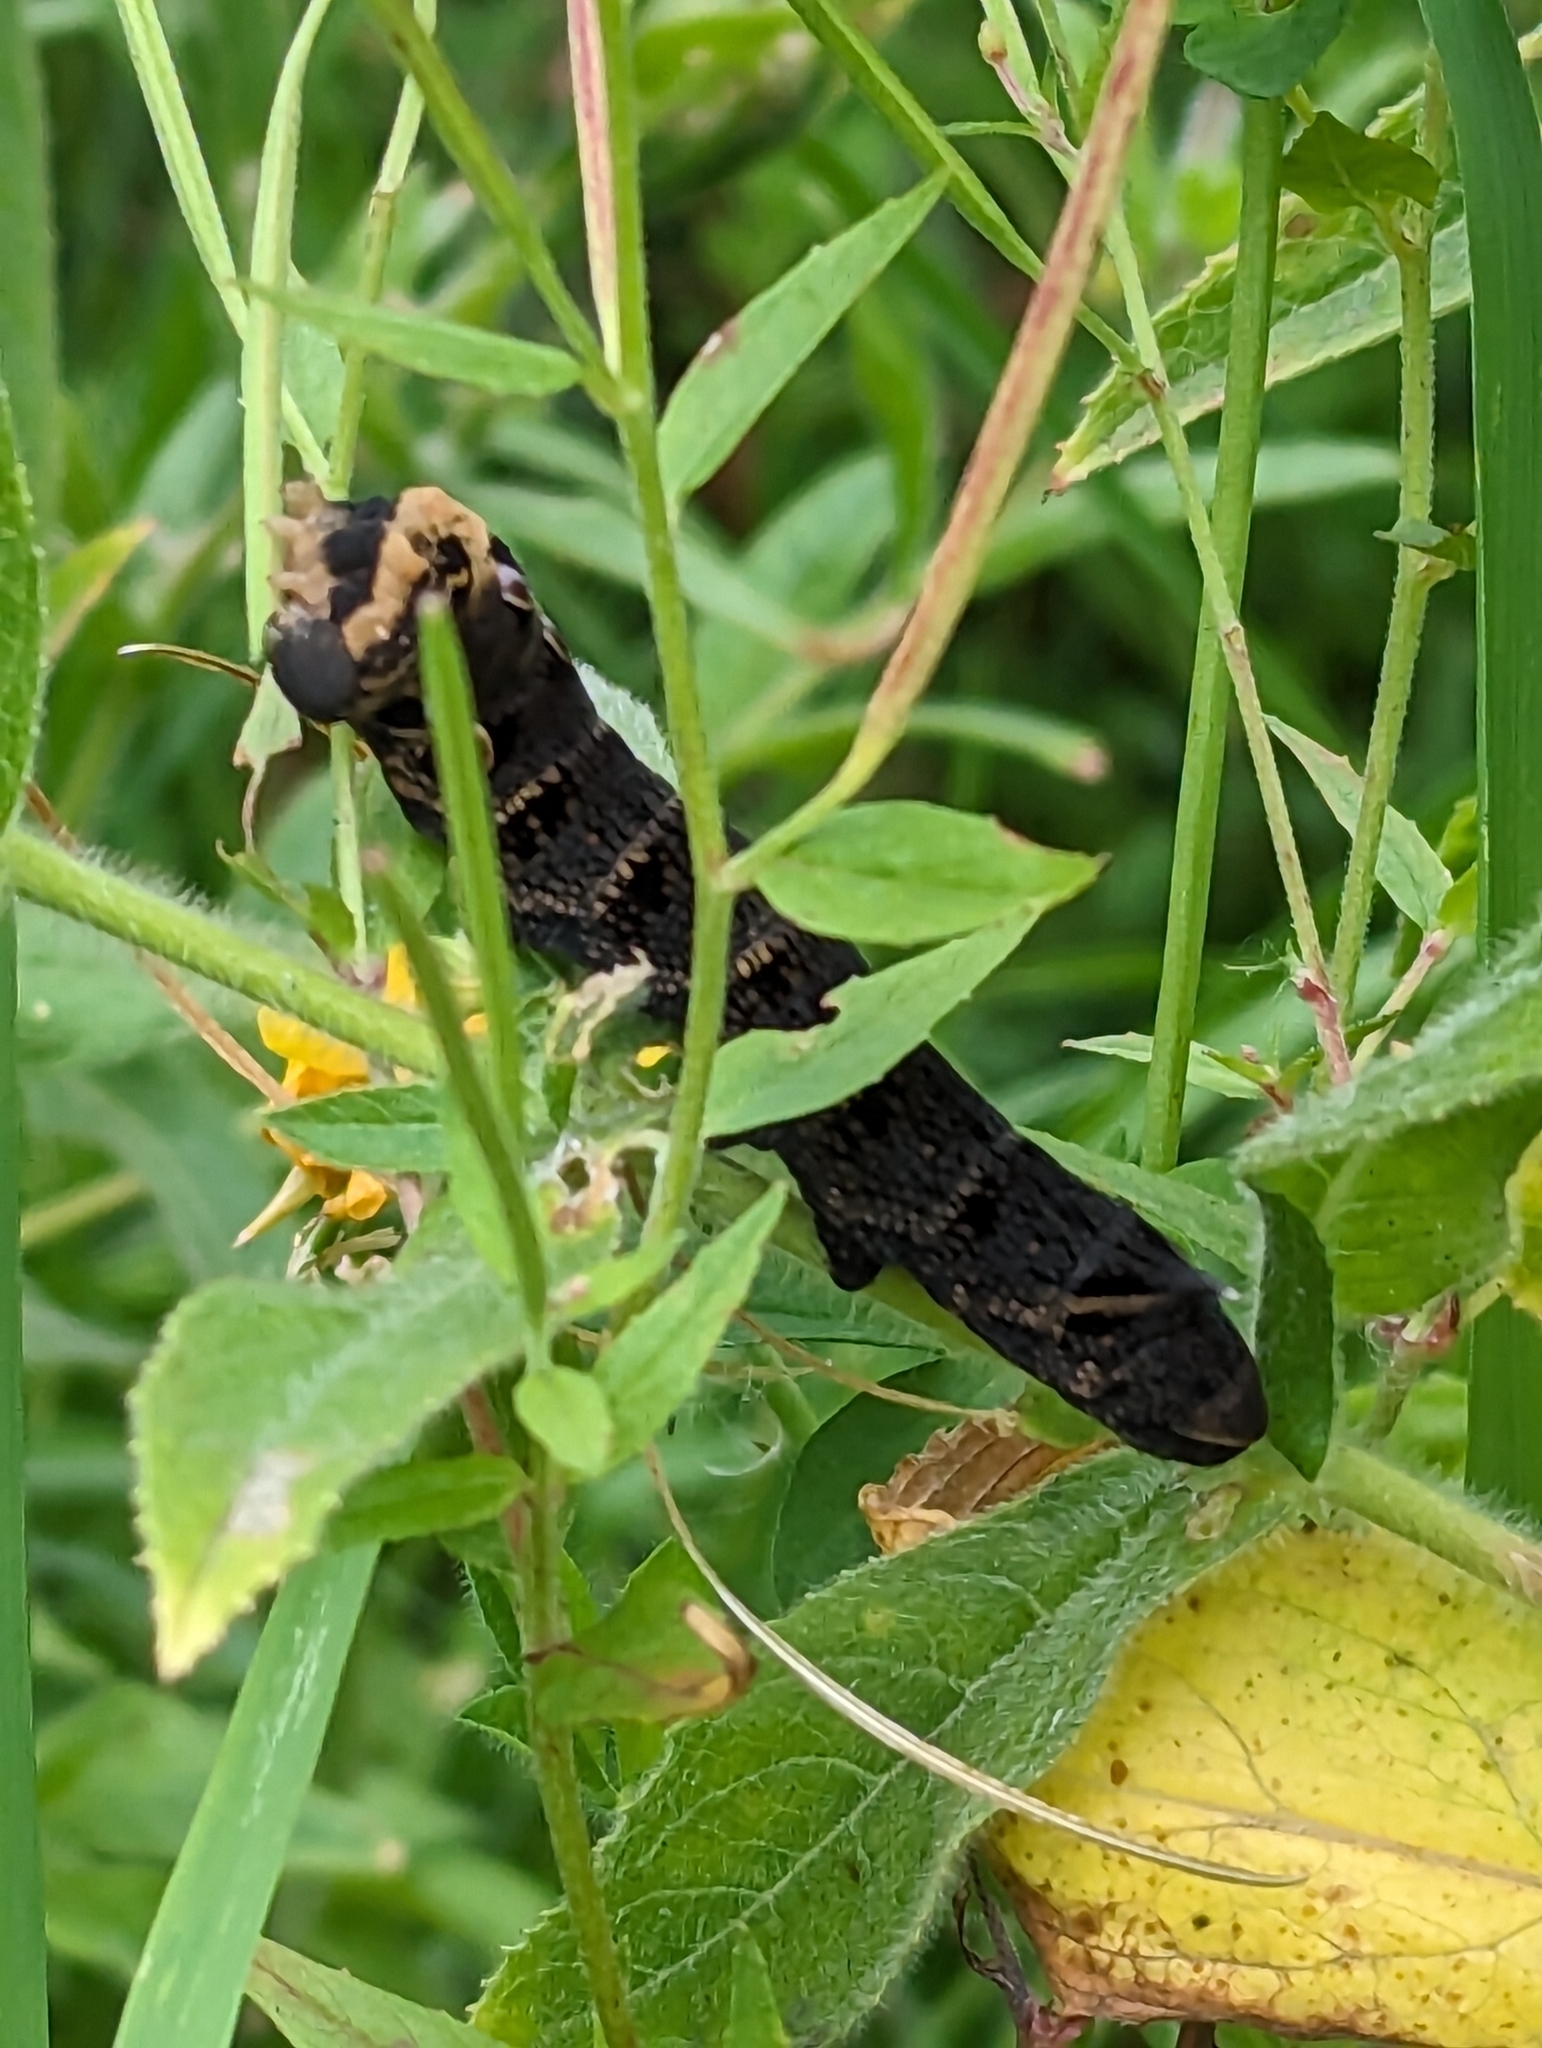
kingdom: Animalia
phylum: Arthropoda
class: Insecta
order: Lepidoptera
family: Sphingidae
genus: Deilephila
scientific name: Deilephila elpenor
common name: Elephant hawk-moth
